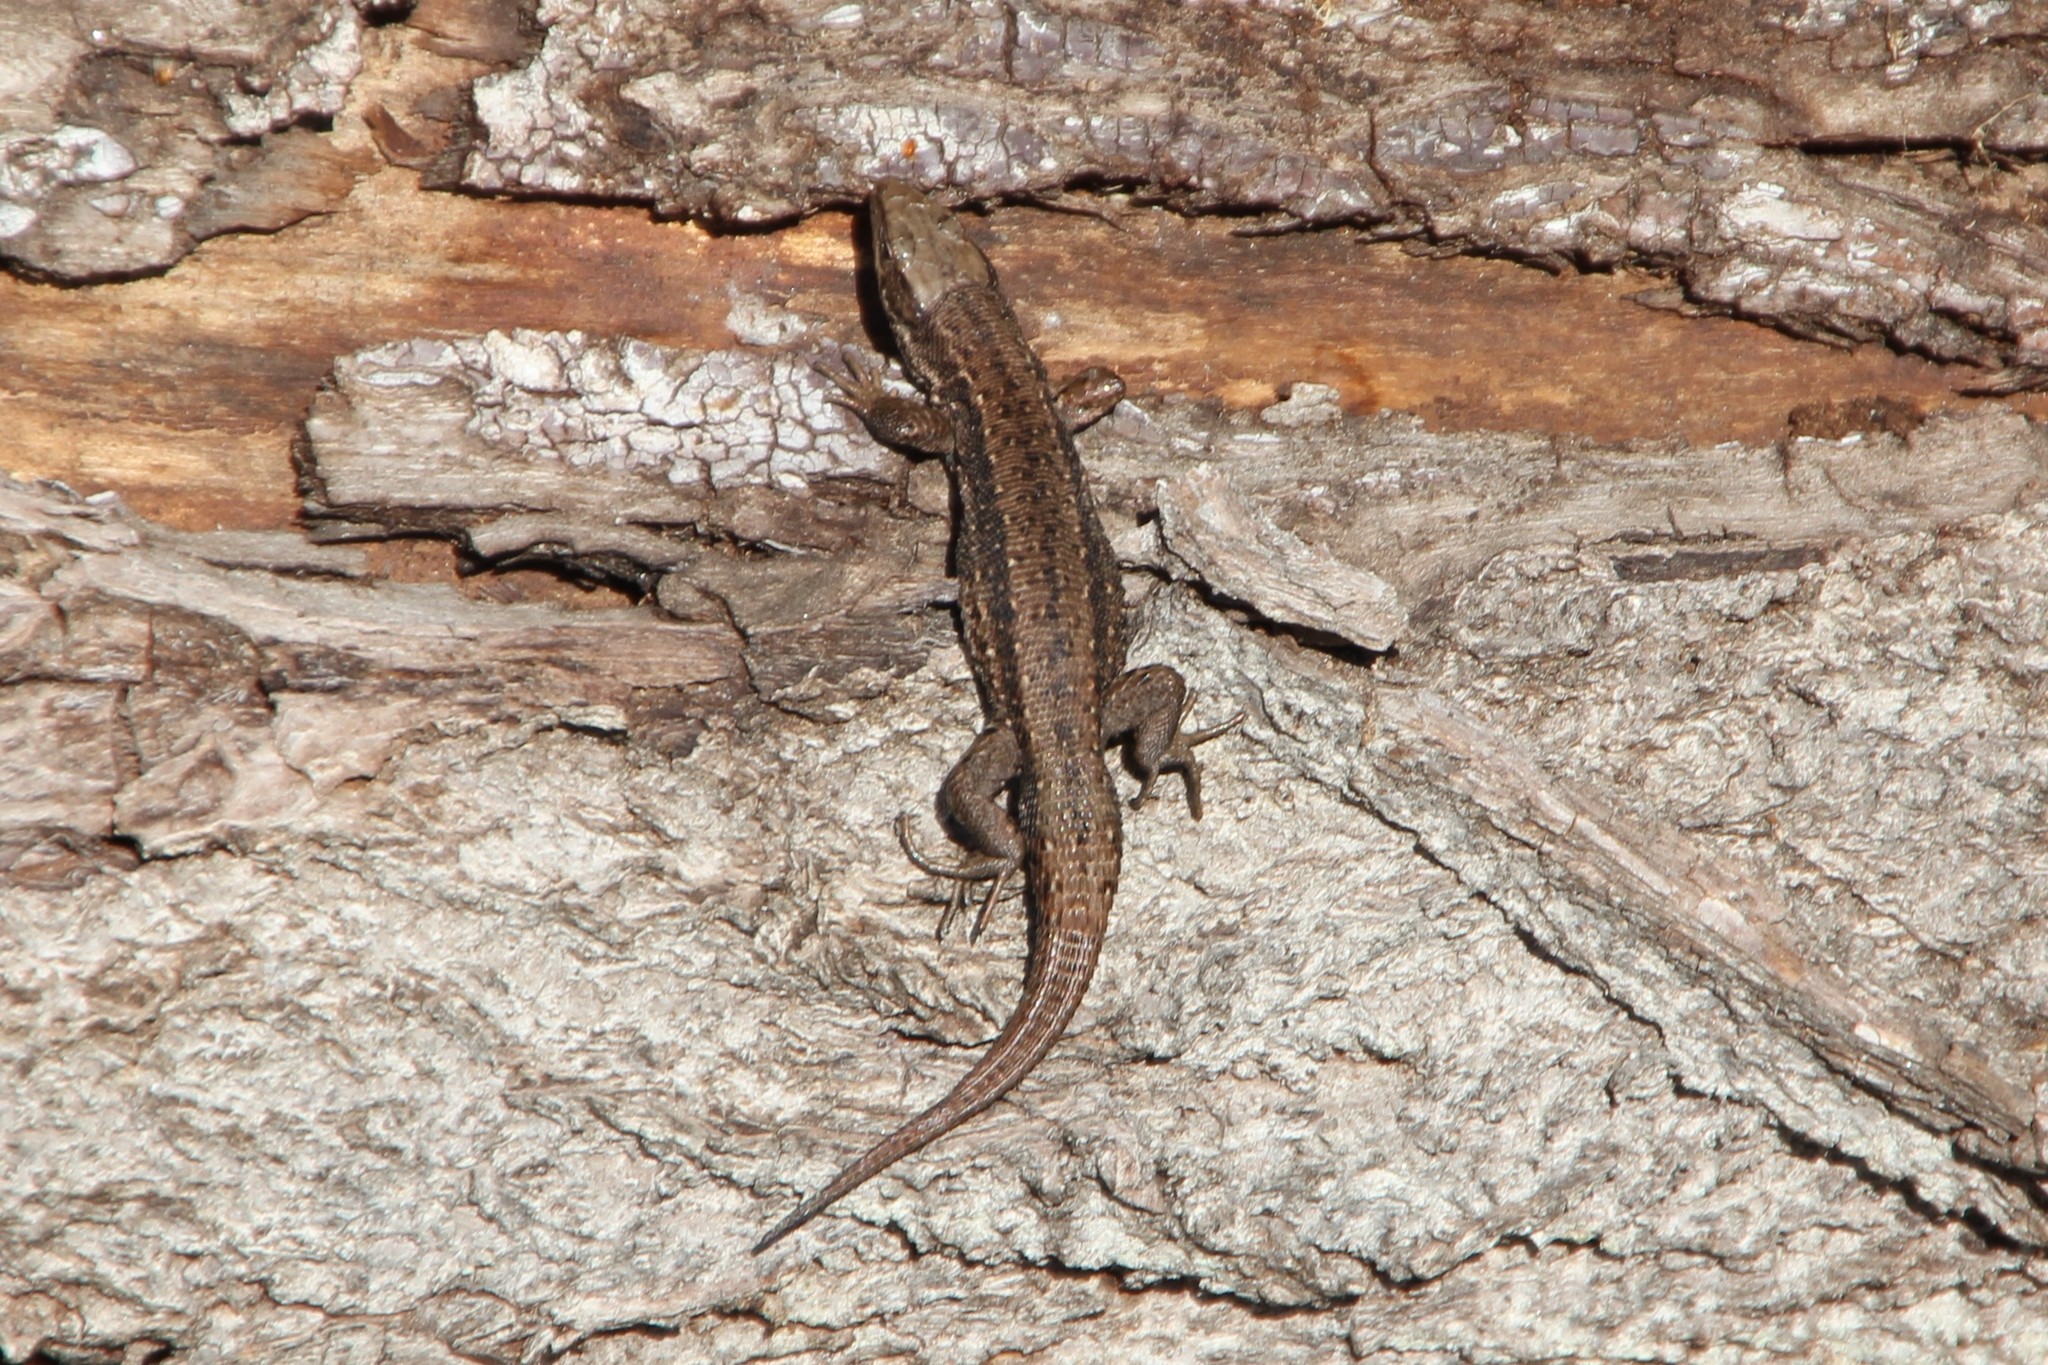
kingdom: Animalia
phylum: Chordata
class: Squamata
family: Lacertidae
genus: Zootoca
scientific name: Zootoca vivipara
